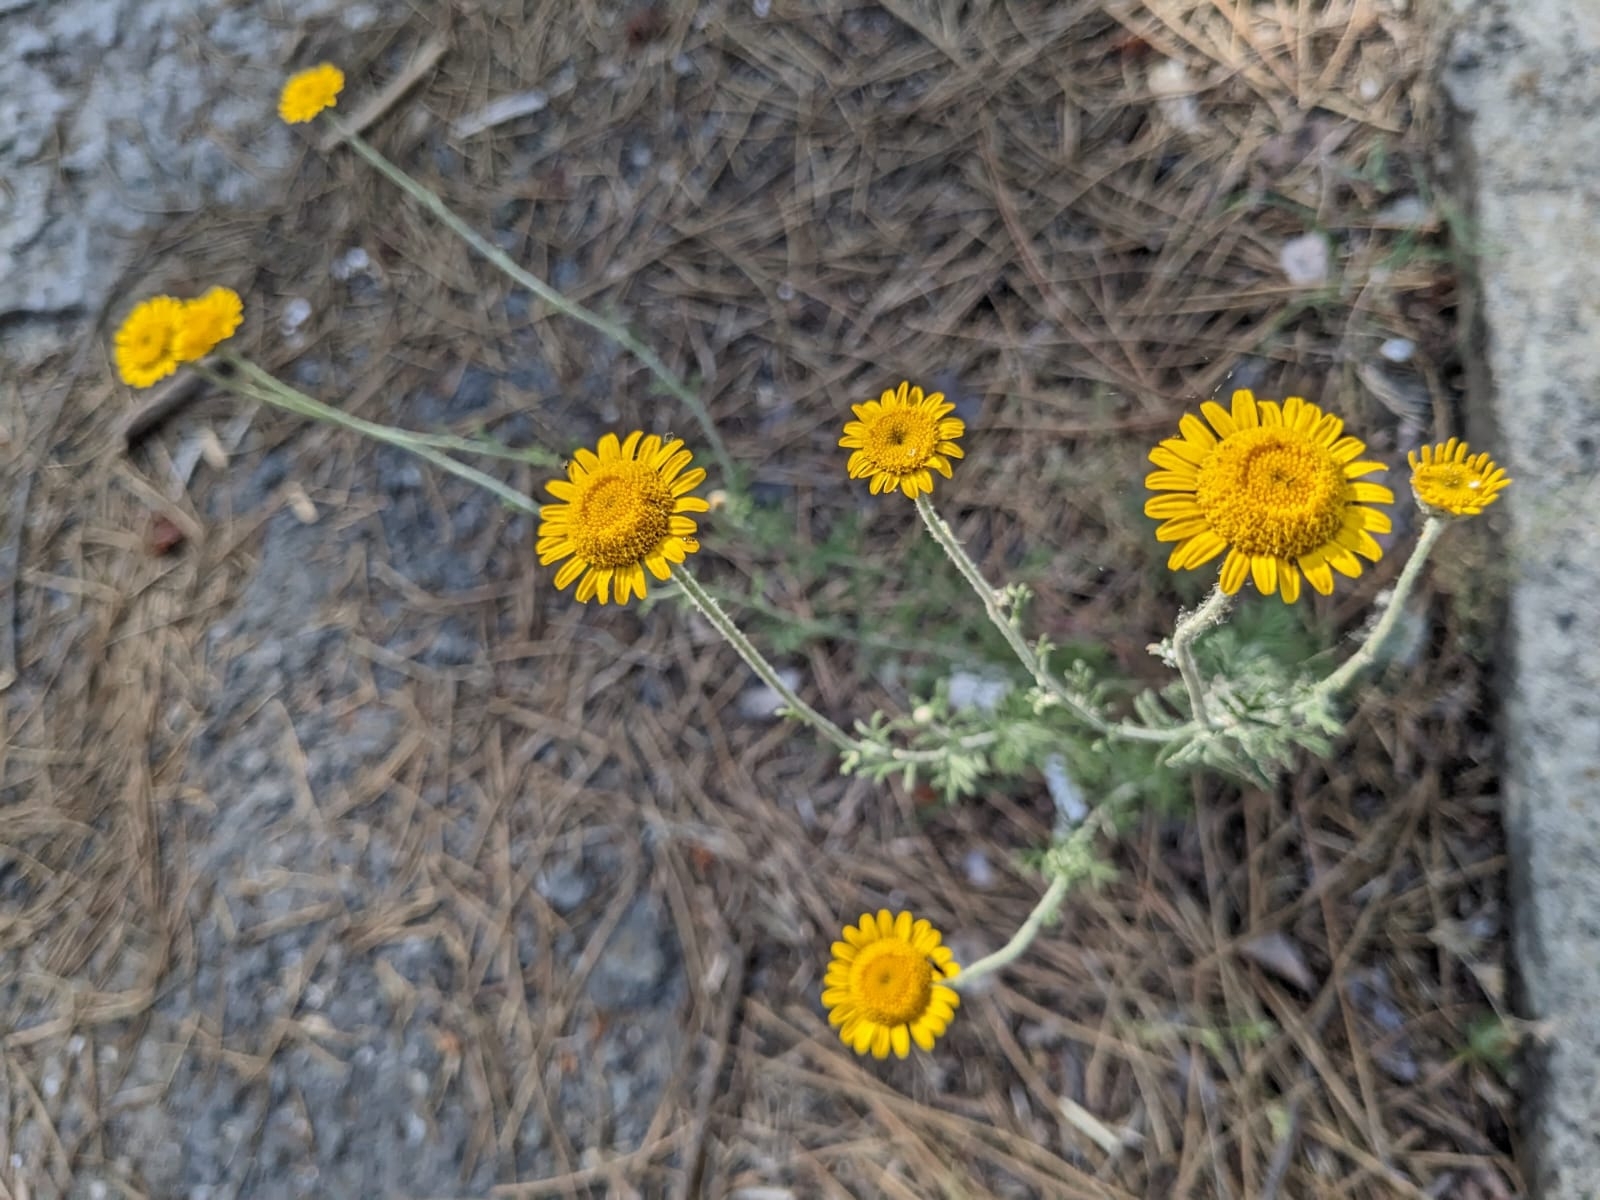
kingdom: Plantae
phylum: Tracheophyta
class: Magnoliopsida
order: Asterales
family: Asteraceae
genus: Cota
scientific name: Cota tinctoria
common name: Golden chamomile
